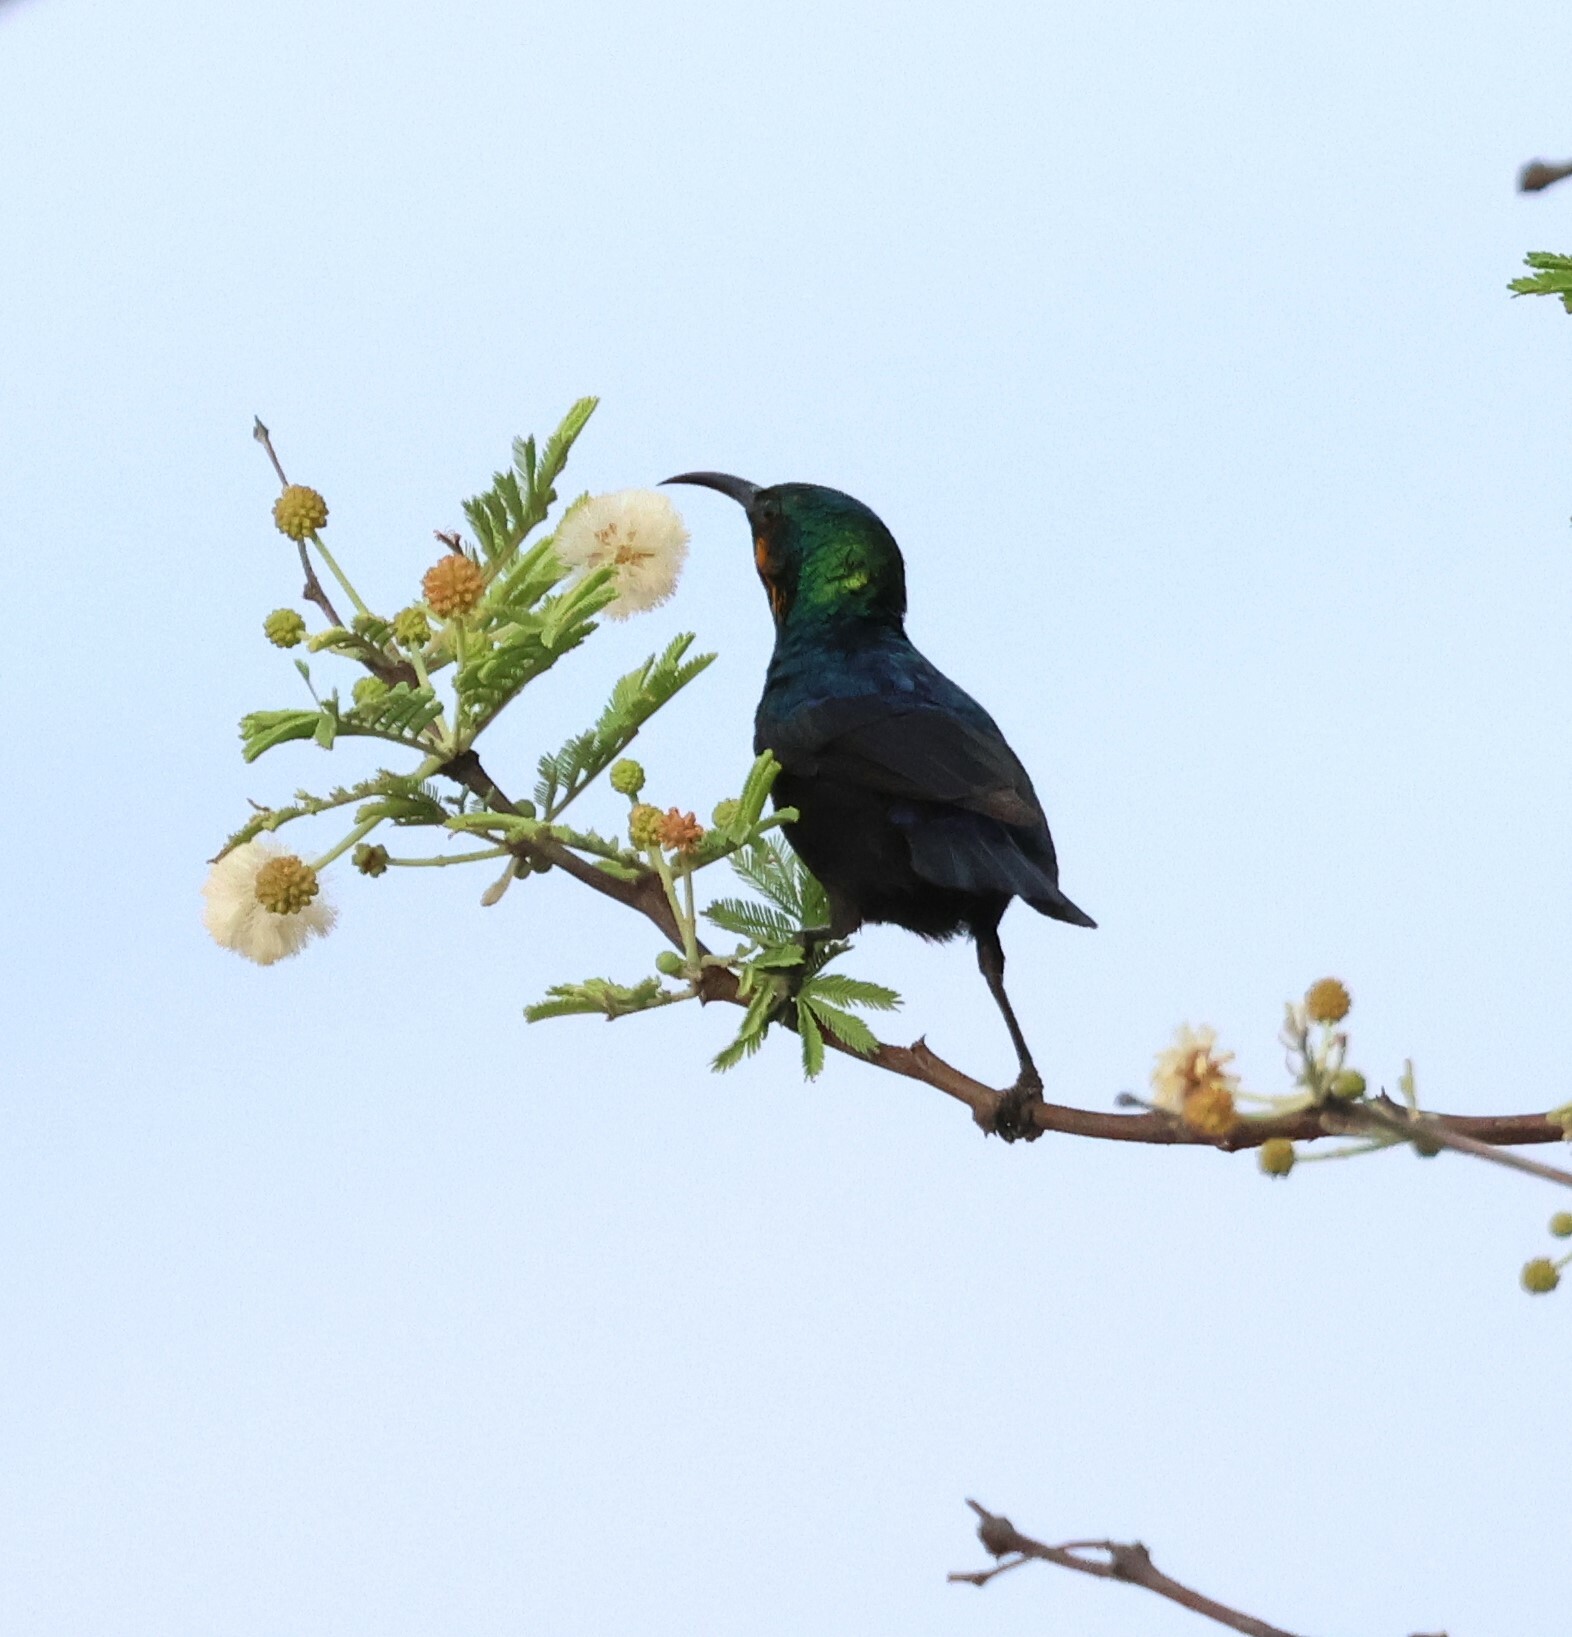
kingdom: Animalia
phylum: Chordata
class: Aves
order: Passeriformes
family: Nectariniidae
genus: Cinnyris
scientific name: Cinnyris mariquensis
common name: Marico sunbird
